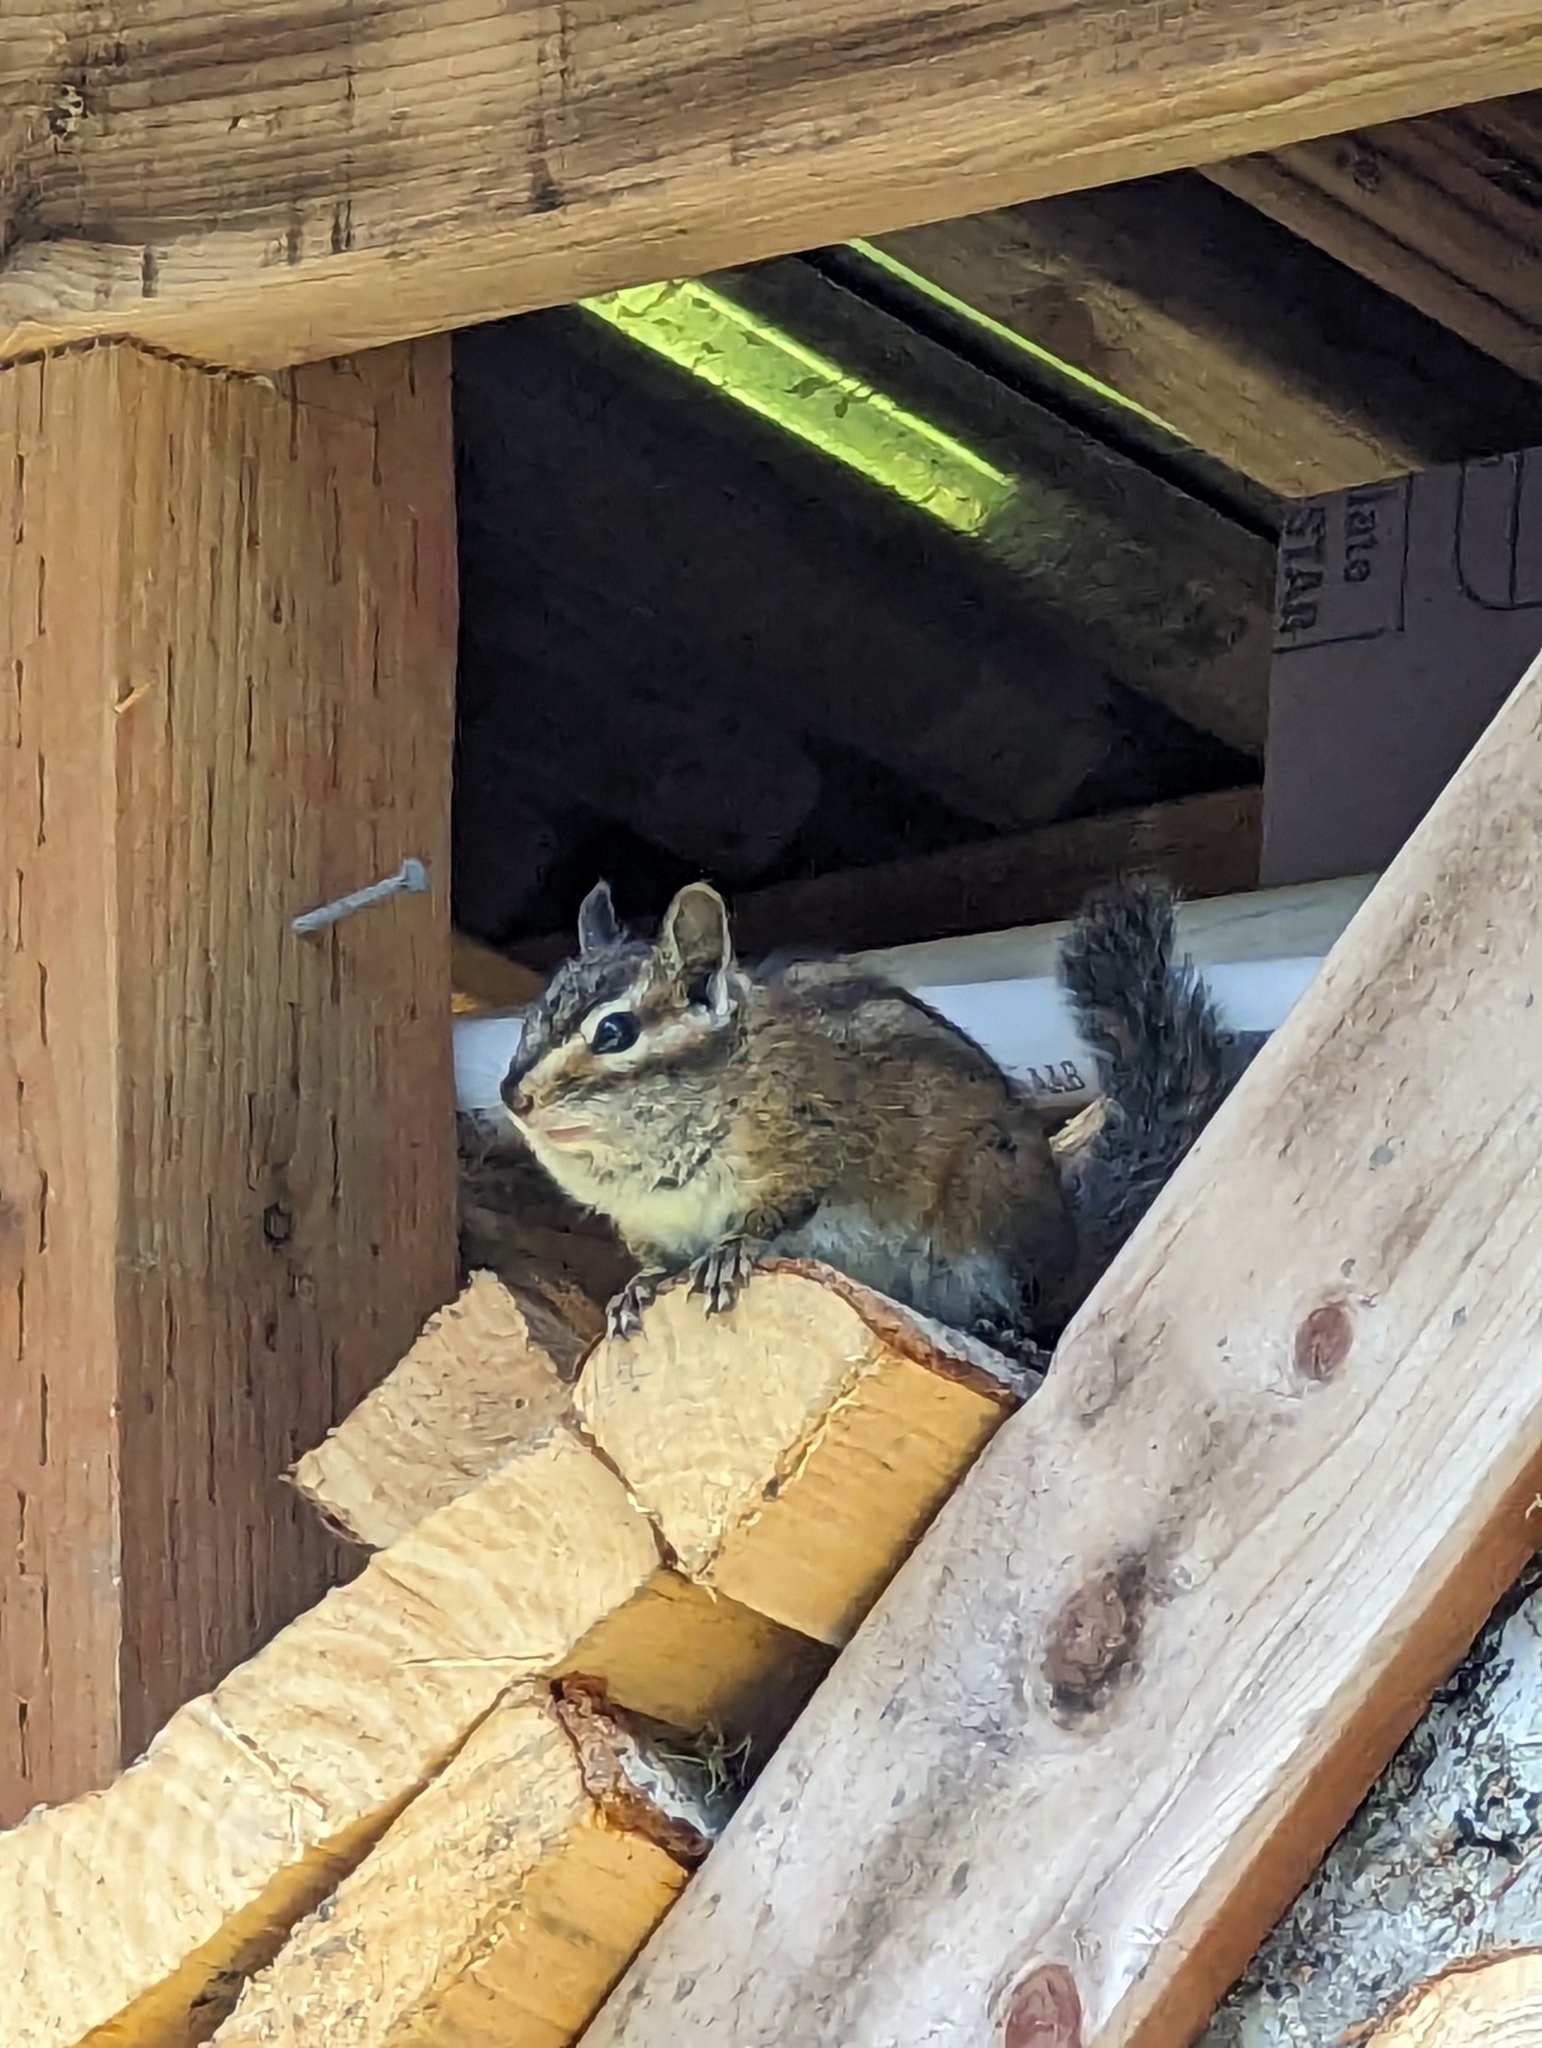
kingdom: Animalia
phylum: Chordata
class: Mammalia
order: Rodentia
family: Sciuridae
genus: Tamias
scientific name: Tamias townsendii
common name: Townsend's chipmunk
